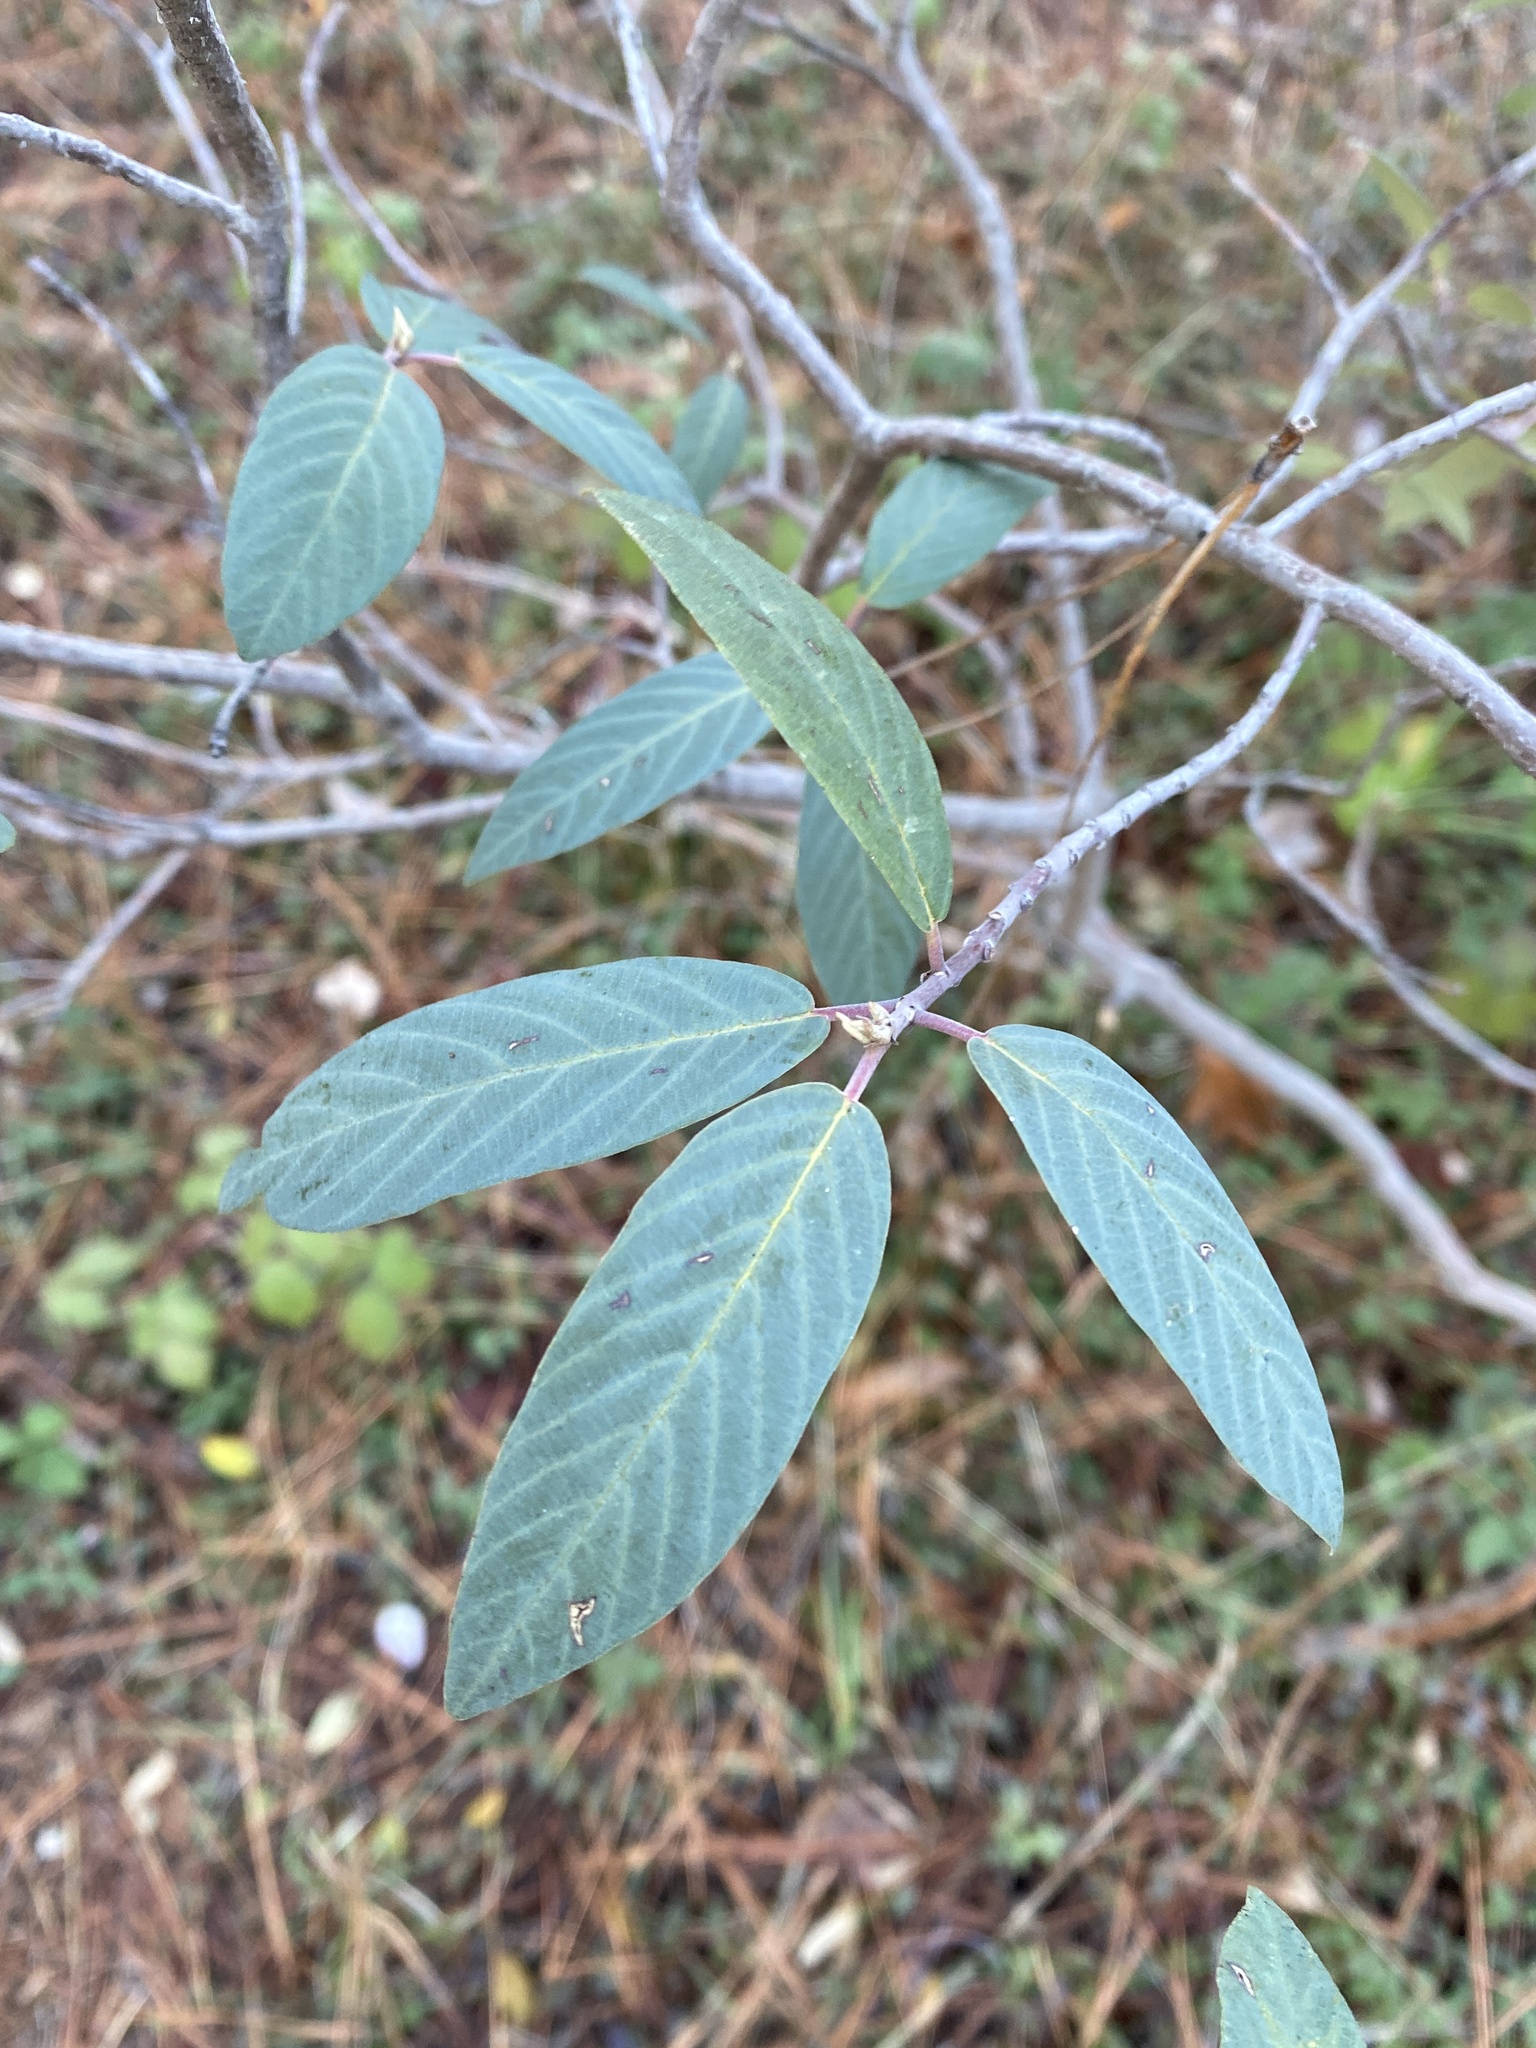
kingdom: Plantae
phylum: Tracheophyta
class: Magnoliopsida
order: Rosales
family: Rhamnaceae
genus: Frangula
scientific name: Frangula californica
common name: California buckthorn
